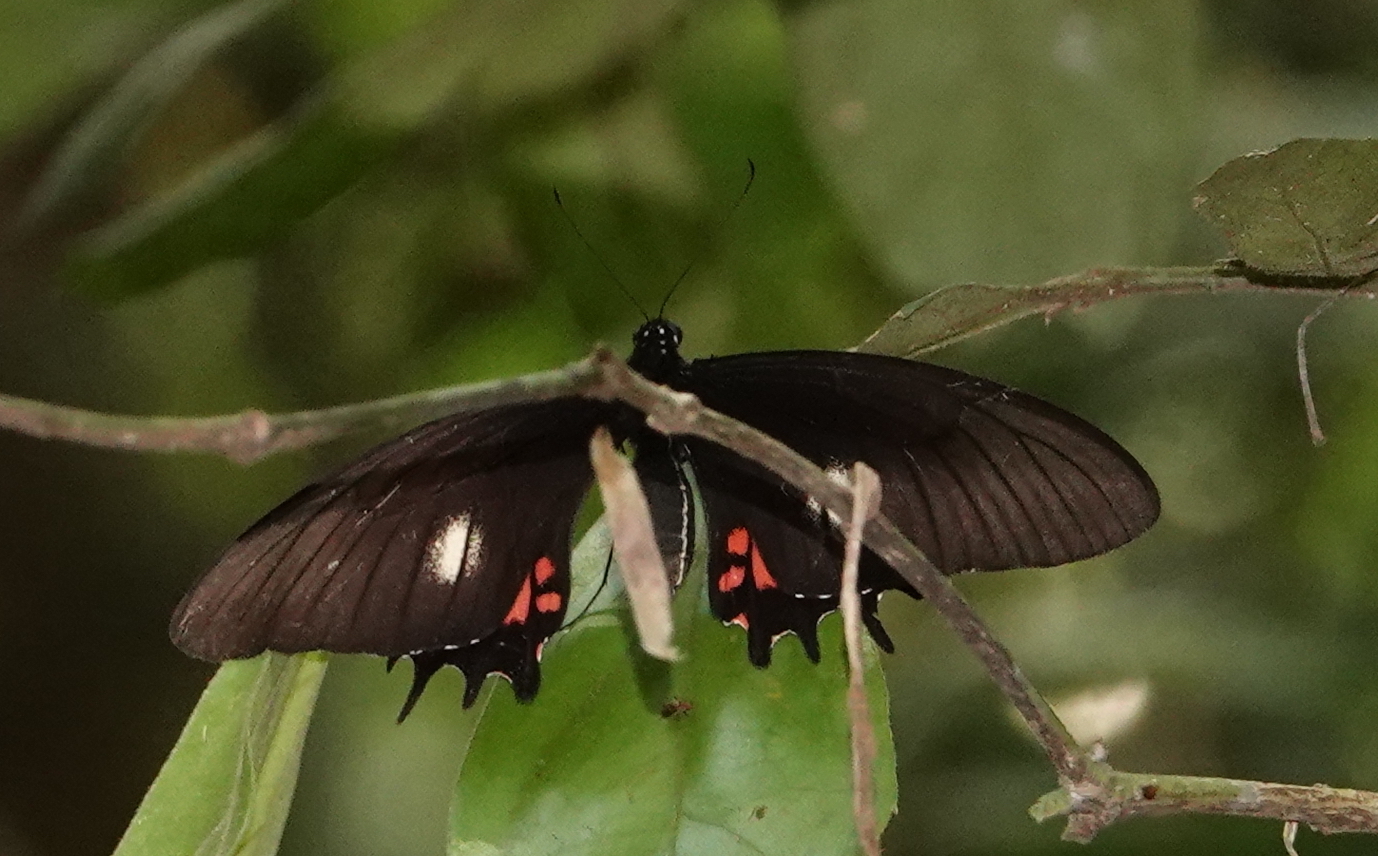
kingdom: Animalia
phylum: Arthropoda
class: Insecta
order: Lepidoptera
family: Papilionidae
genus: Papilio
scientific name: Papilio anchisiades
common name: Idaes swallowtail
